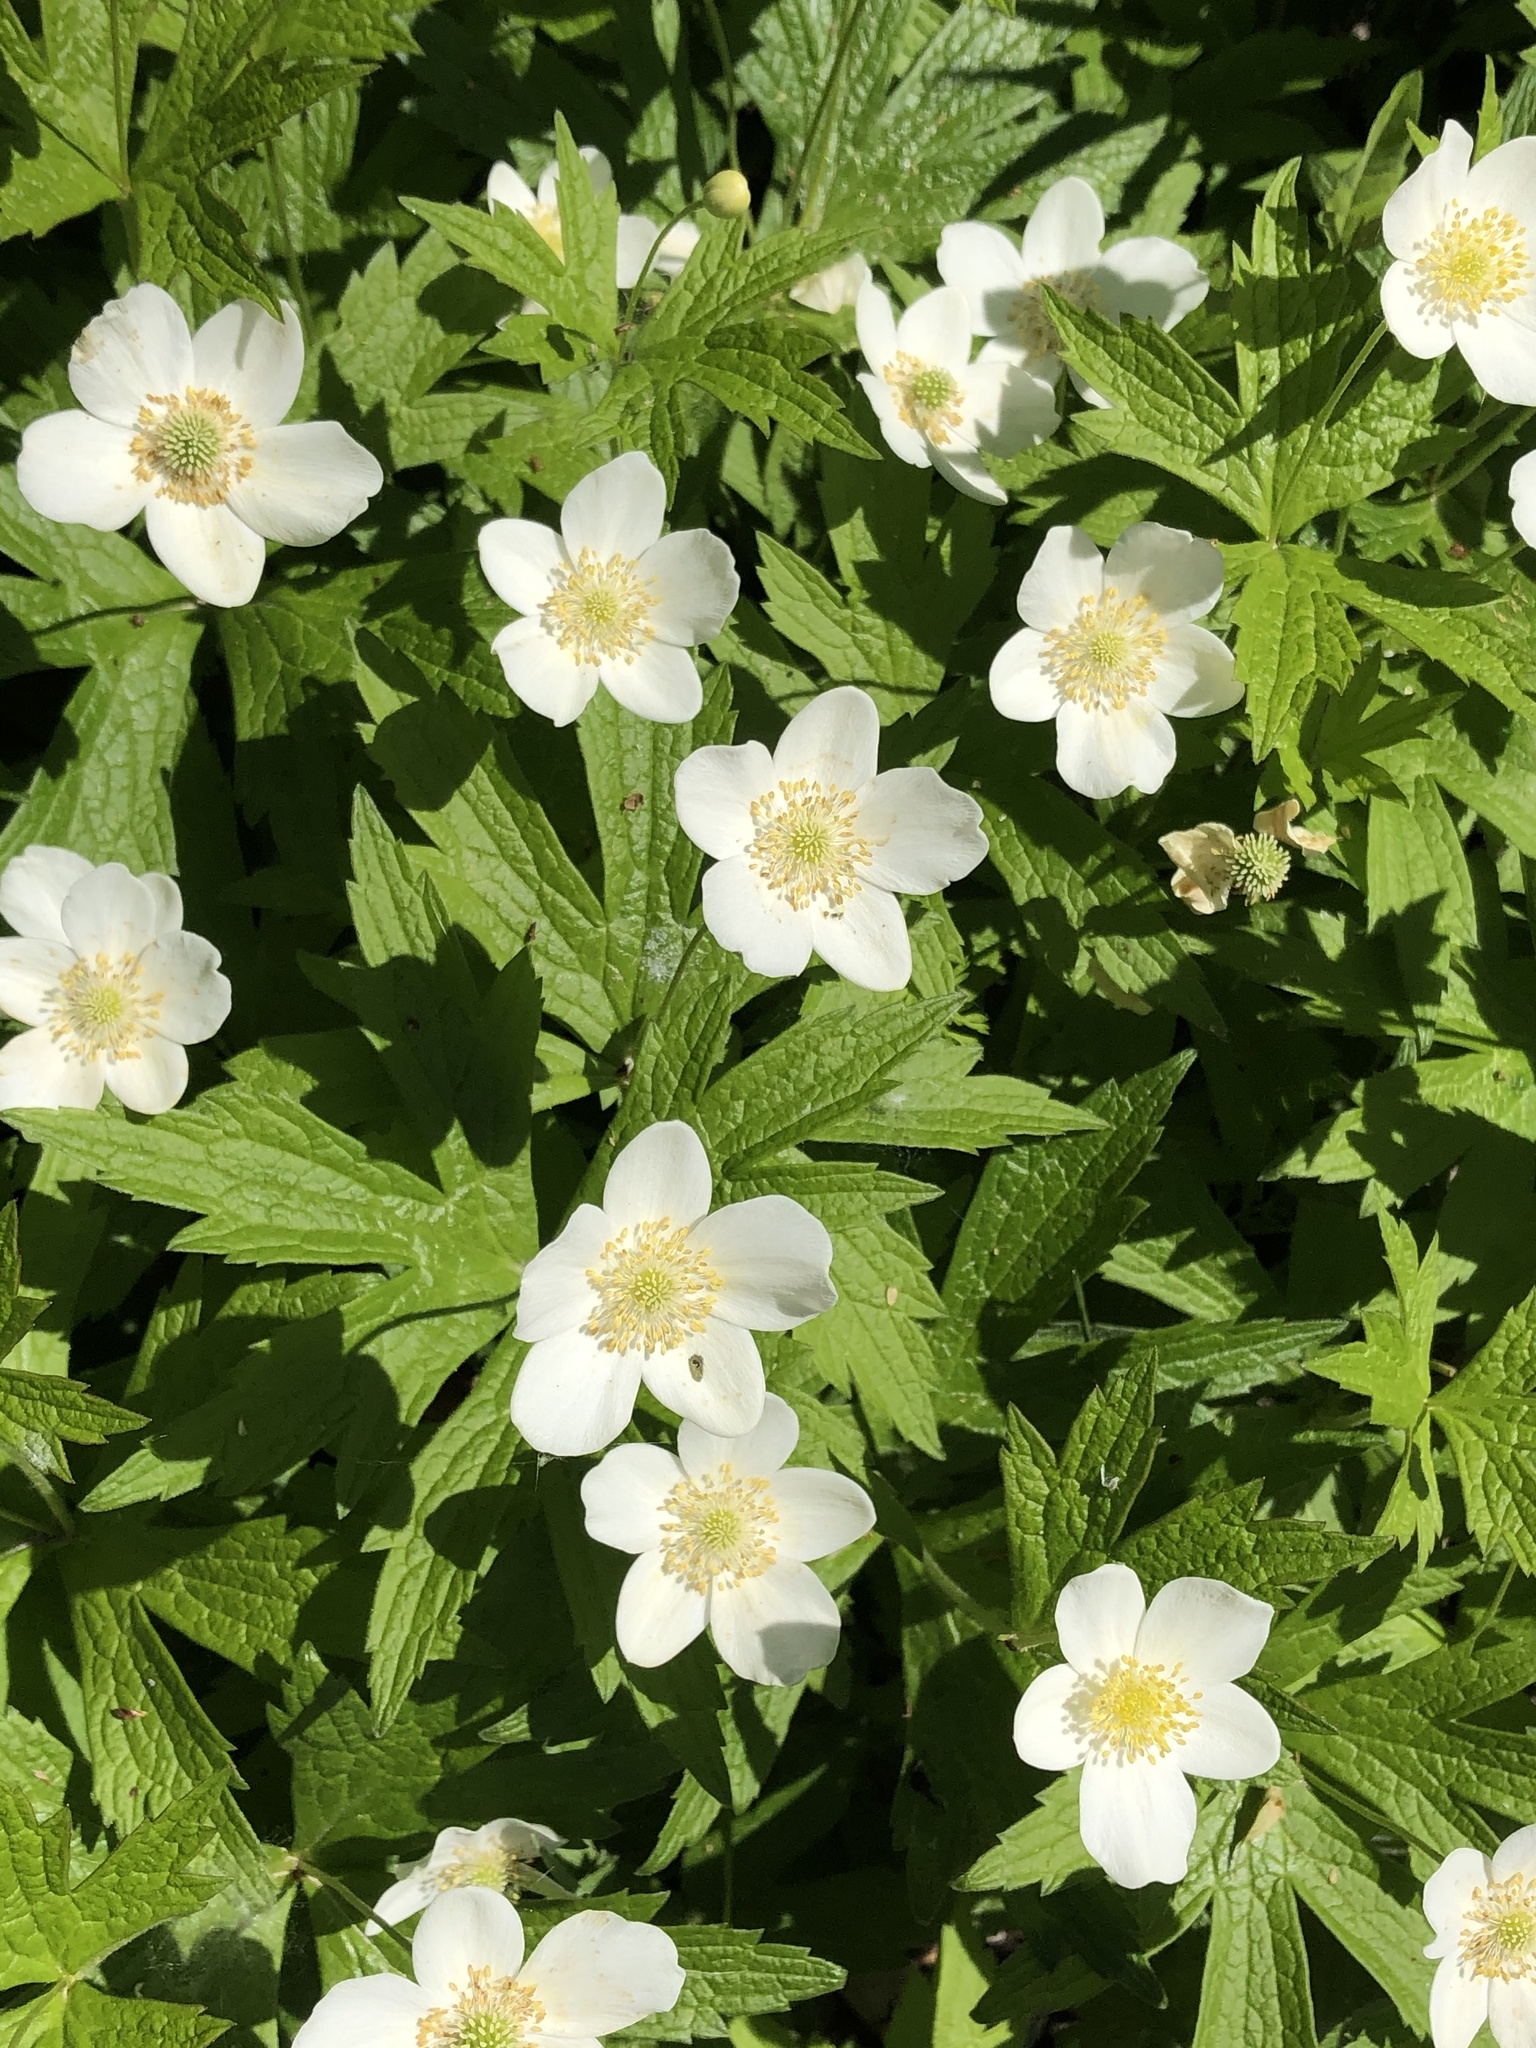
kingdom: Plantae
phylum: Tracheophyta
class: Magnoliopsida
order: Ranunculales
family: Ranunculaceae
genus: Anemonastrum
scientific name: Anemonastrum canadense
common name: Canada anemone
